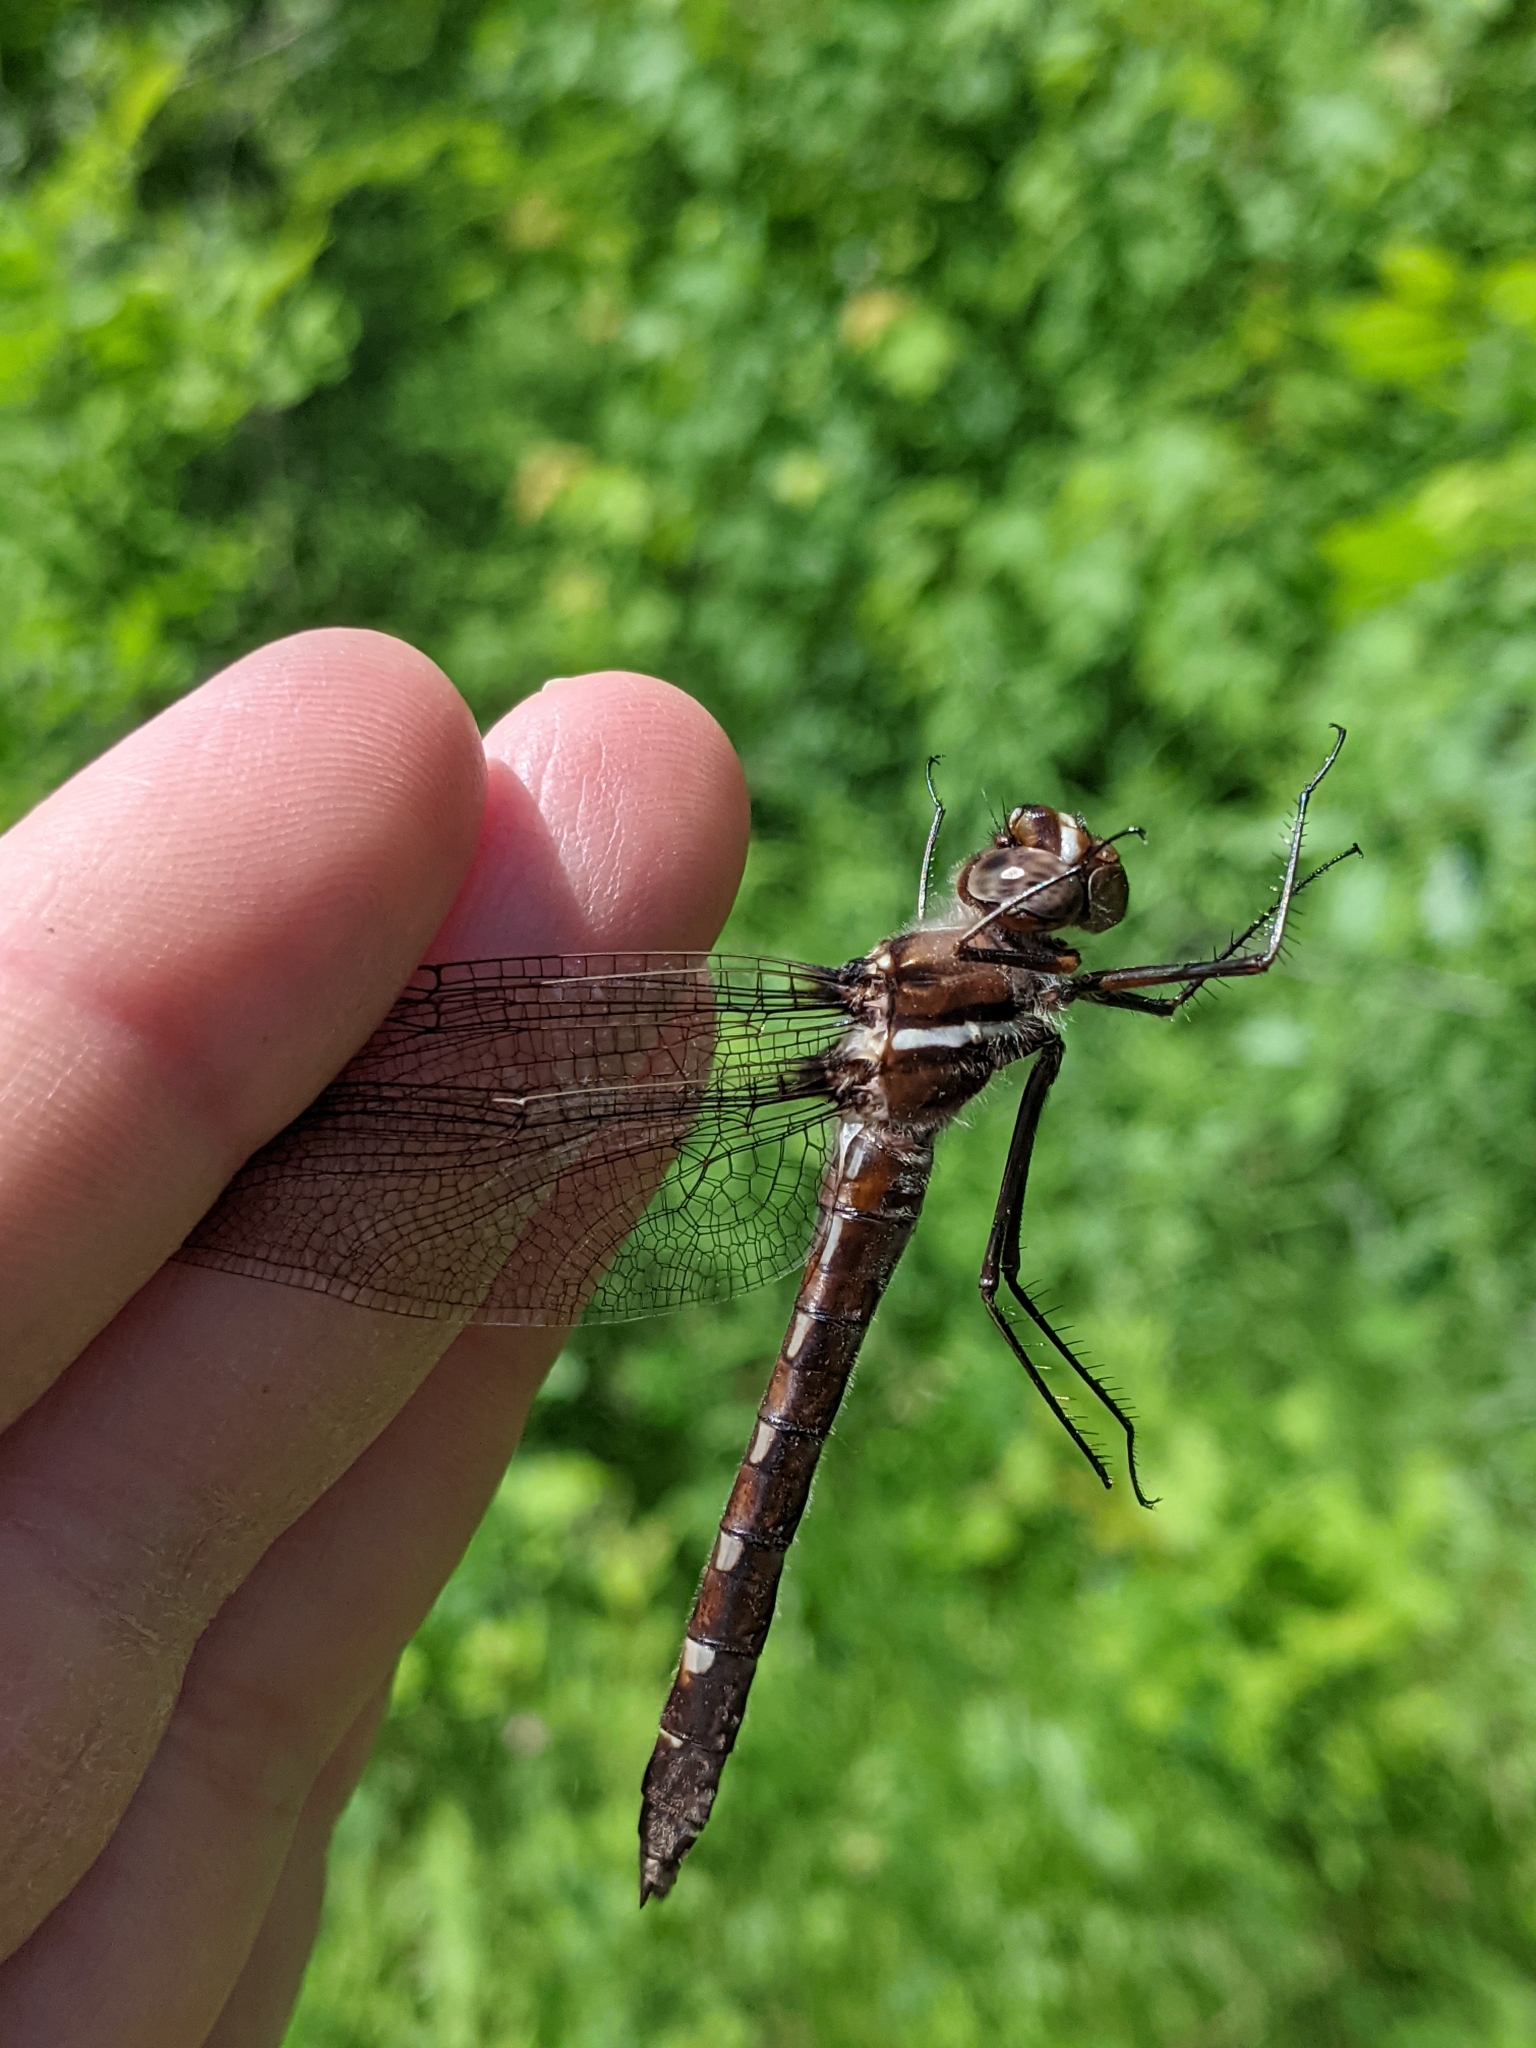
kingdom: Animalia
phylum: Arthropoda
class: Insecta
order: Odonata
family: Macromiidae
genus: Didymops
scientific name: Didymops transversa
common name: Stream cruiser
